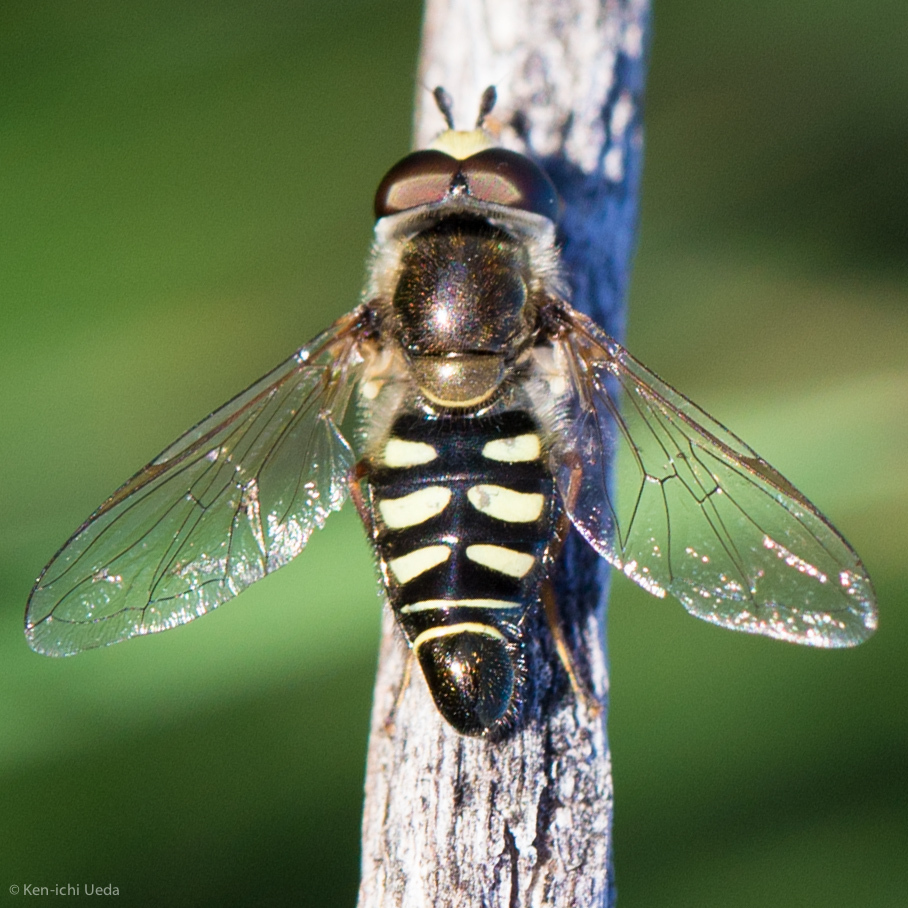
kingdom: Animalia
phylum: Arthropoda
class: Insecta
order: Diptera
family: Syrphidae
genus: Eupeodes
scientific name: Eupeodes volucris
